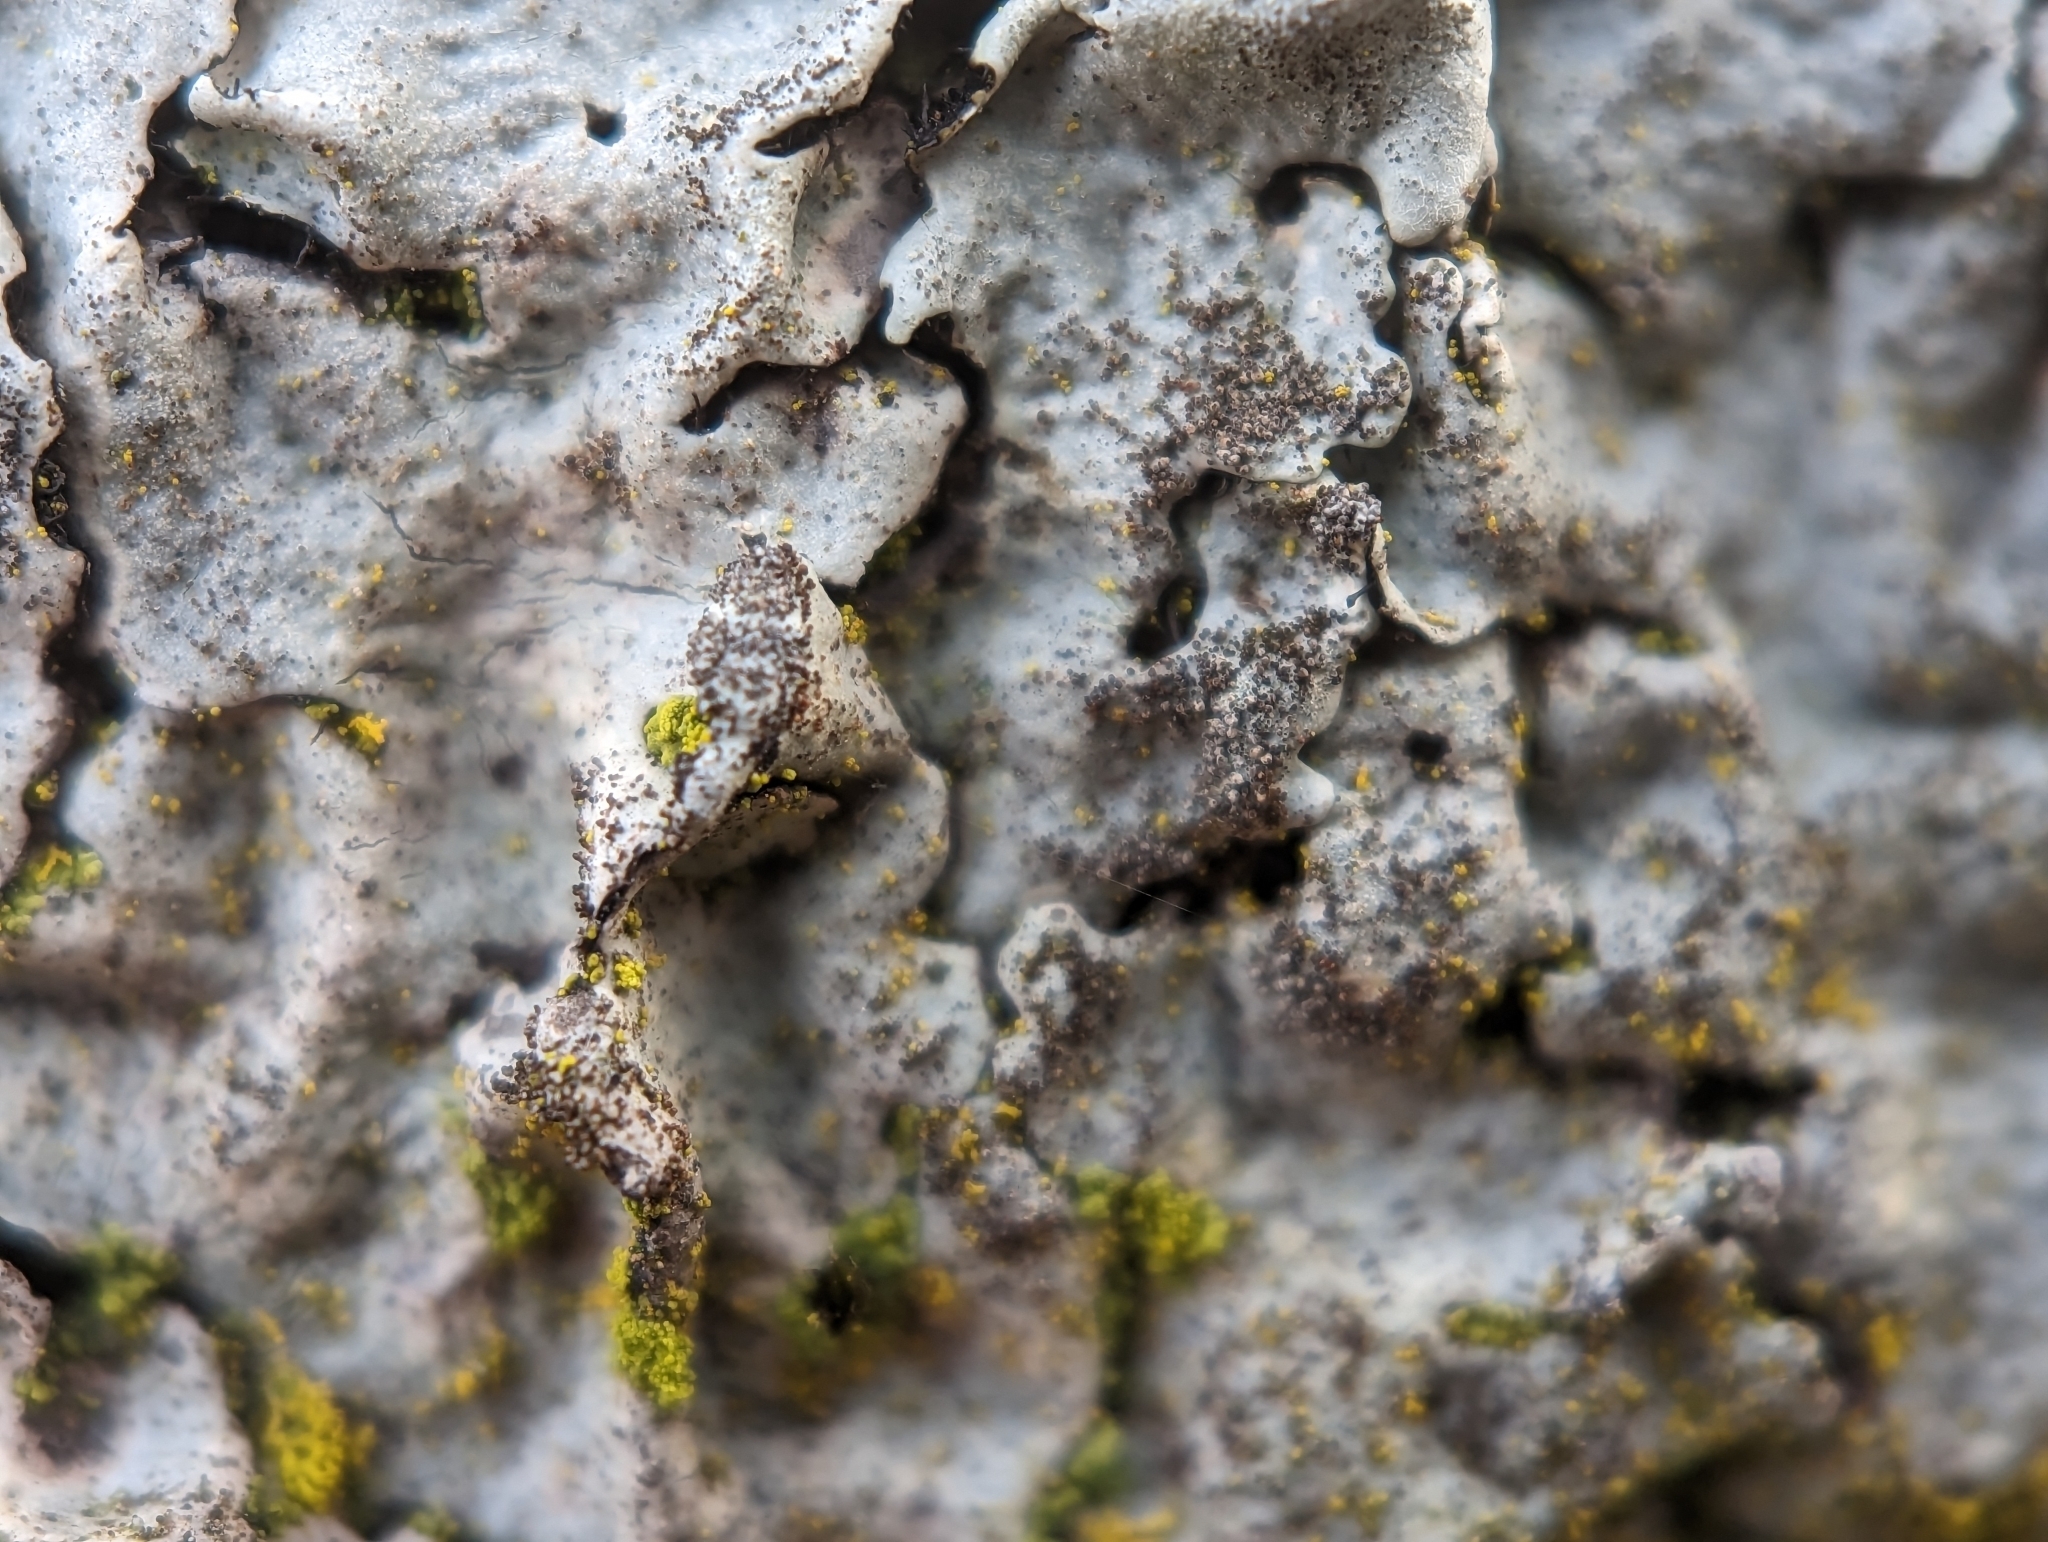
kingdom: Fungi
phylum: Ascomycota
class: Lecanoromycetes
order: Lecanorales
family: Parmeliaceae
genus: Parmelina
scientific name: Parmelina tiliacea
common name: Linden shield lichen
